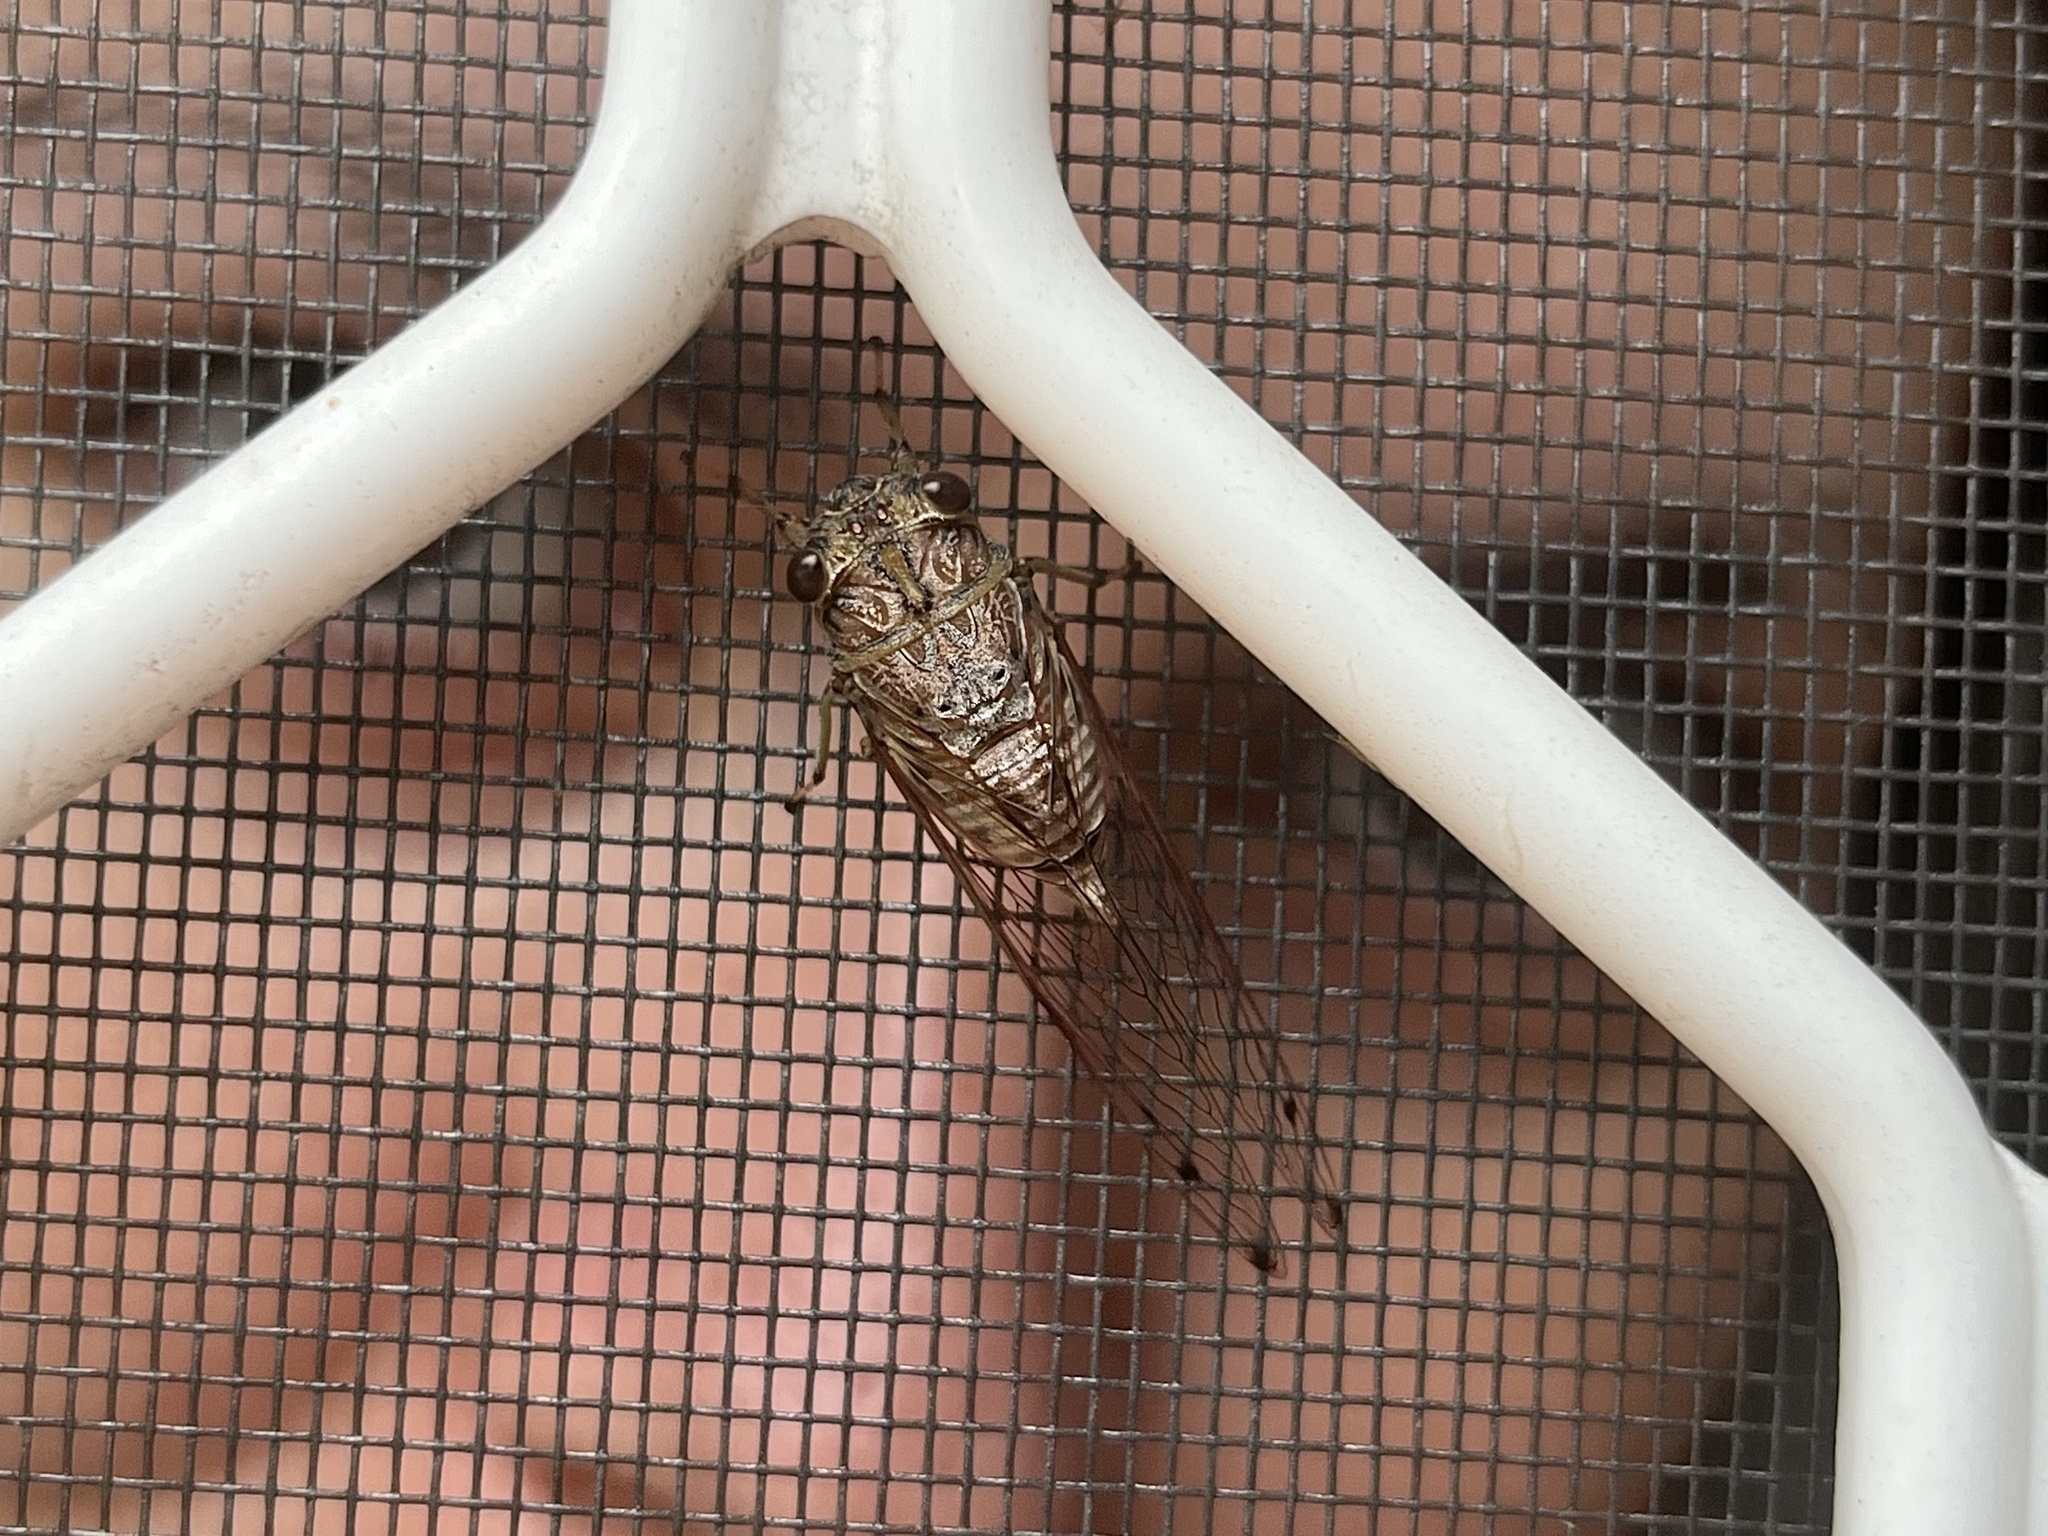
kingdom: Animalia
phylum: Arthropoda
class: Insecta
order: Hemiptera
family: Cicadidae
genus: Tamasa
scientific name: Tamasa tristigma
